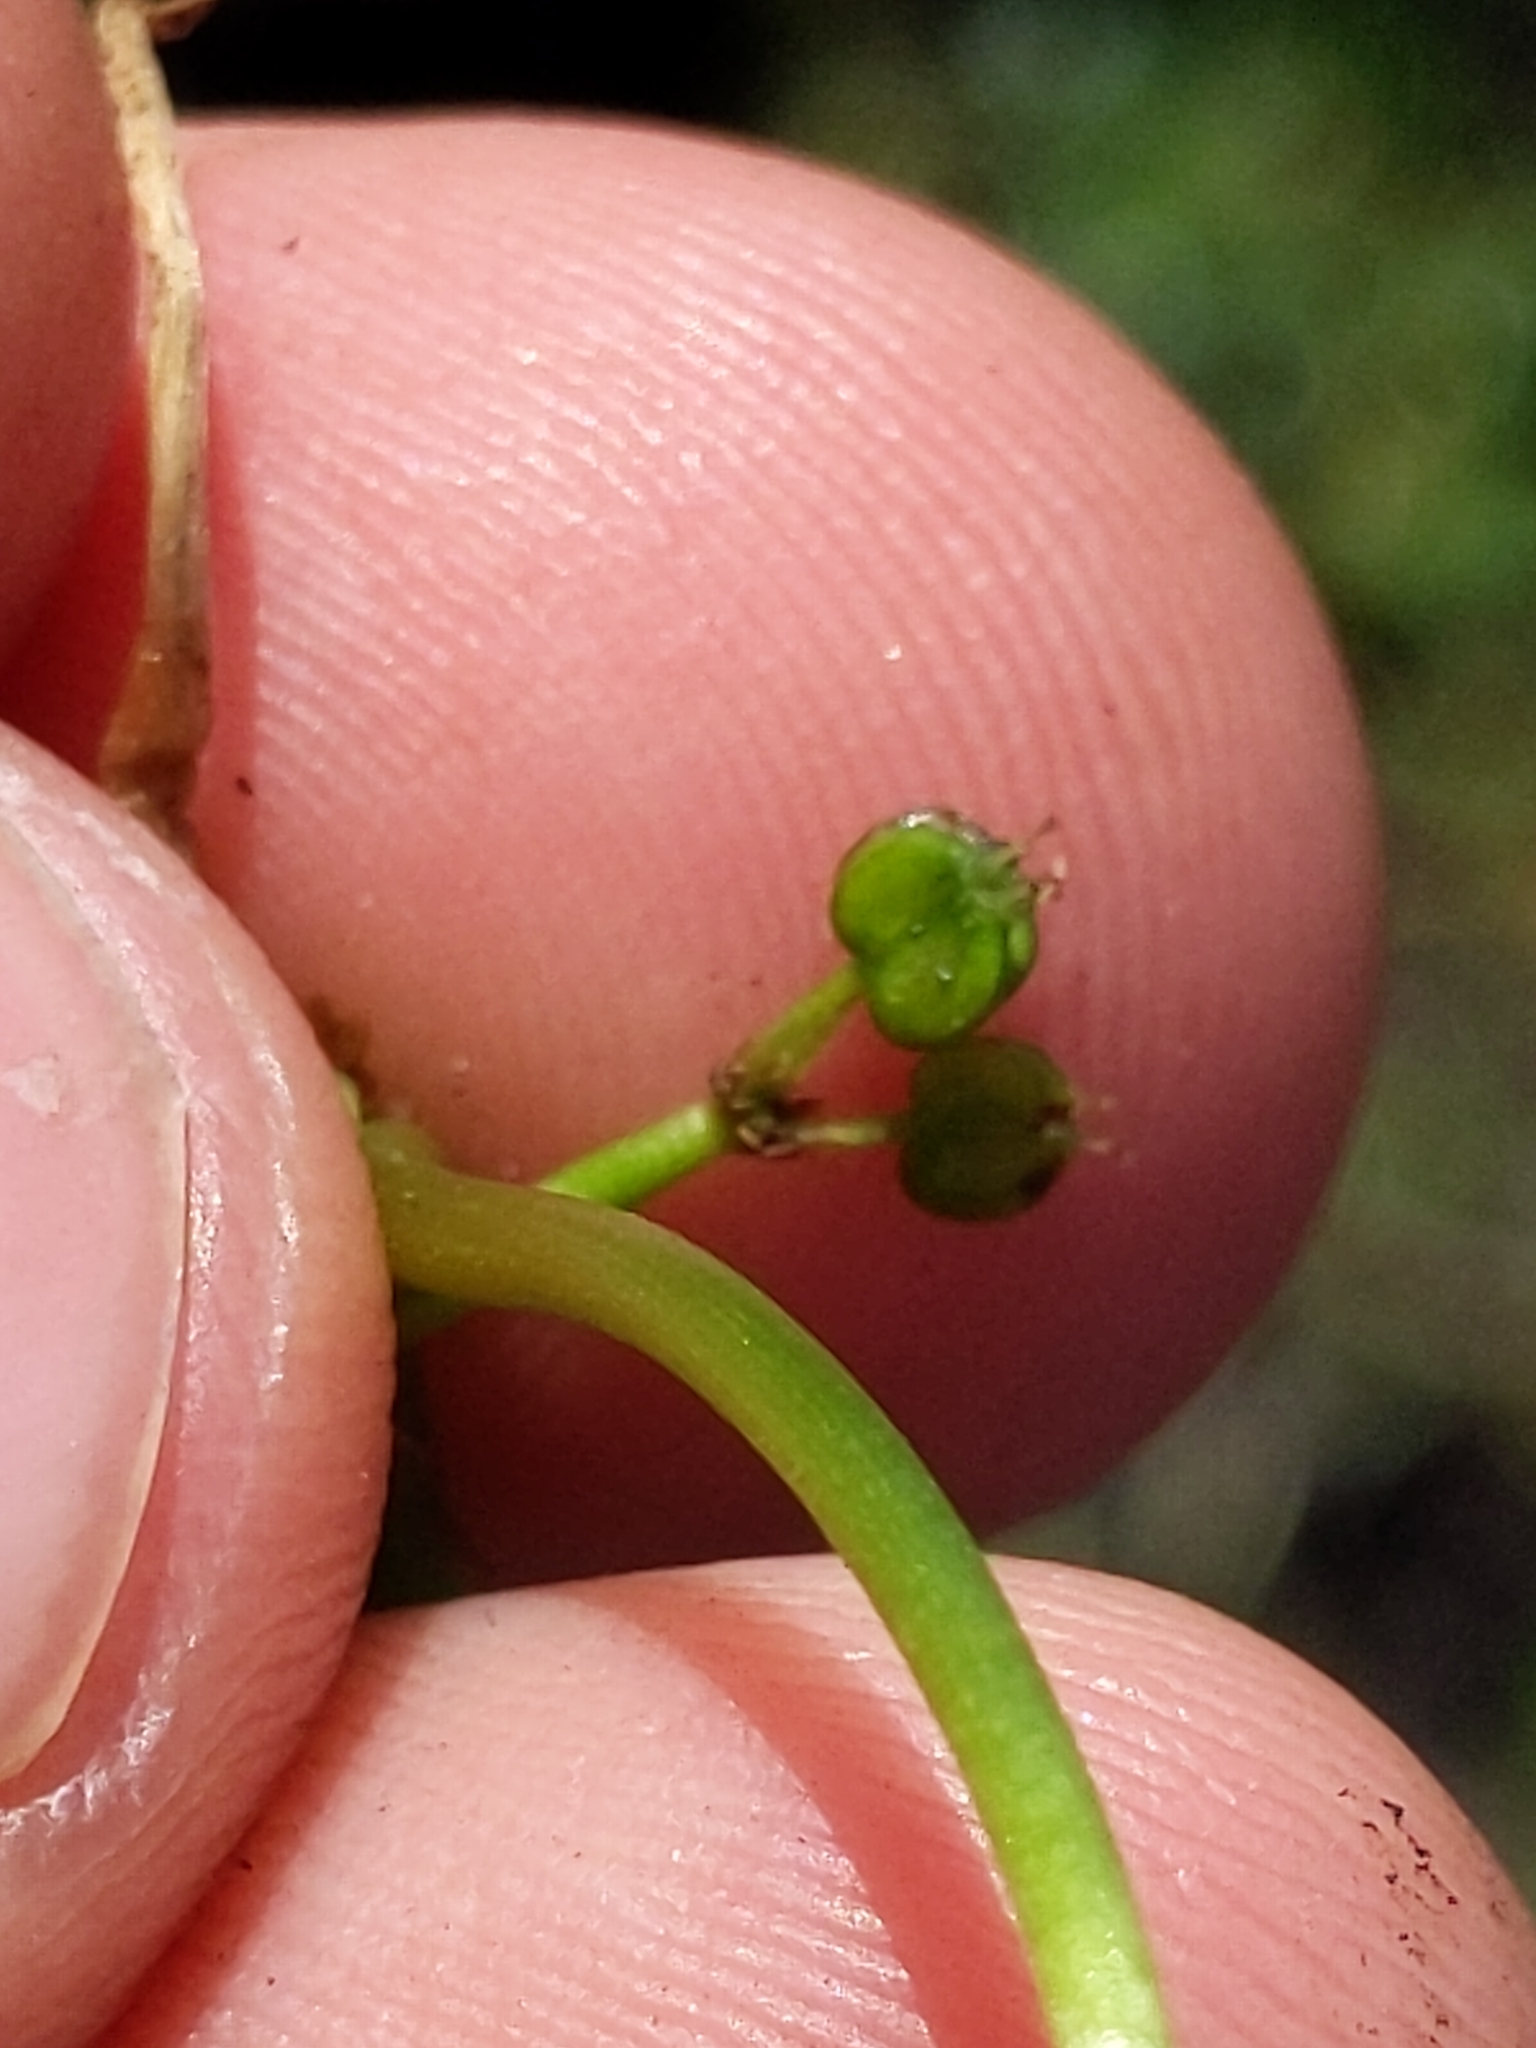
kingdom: Plantae
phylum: Tracheophyta
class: Magnoliopsida
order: Apiales
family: Araliaceae
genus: Hydrocotyle
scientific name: Hydrocotyle ranunculoides
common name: Floating pennywort
